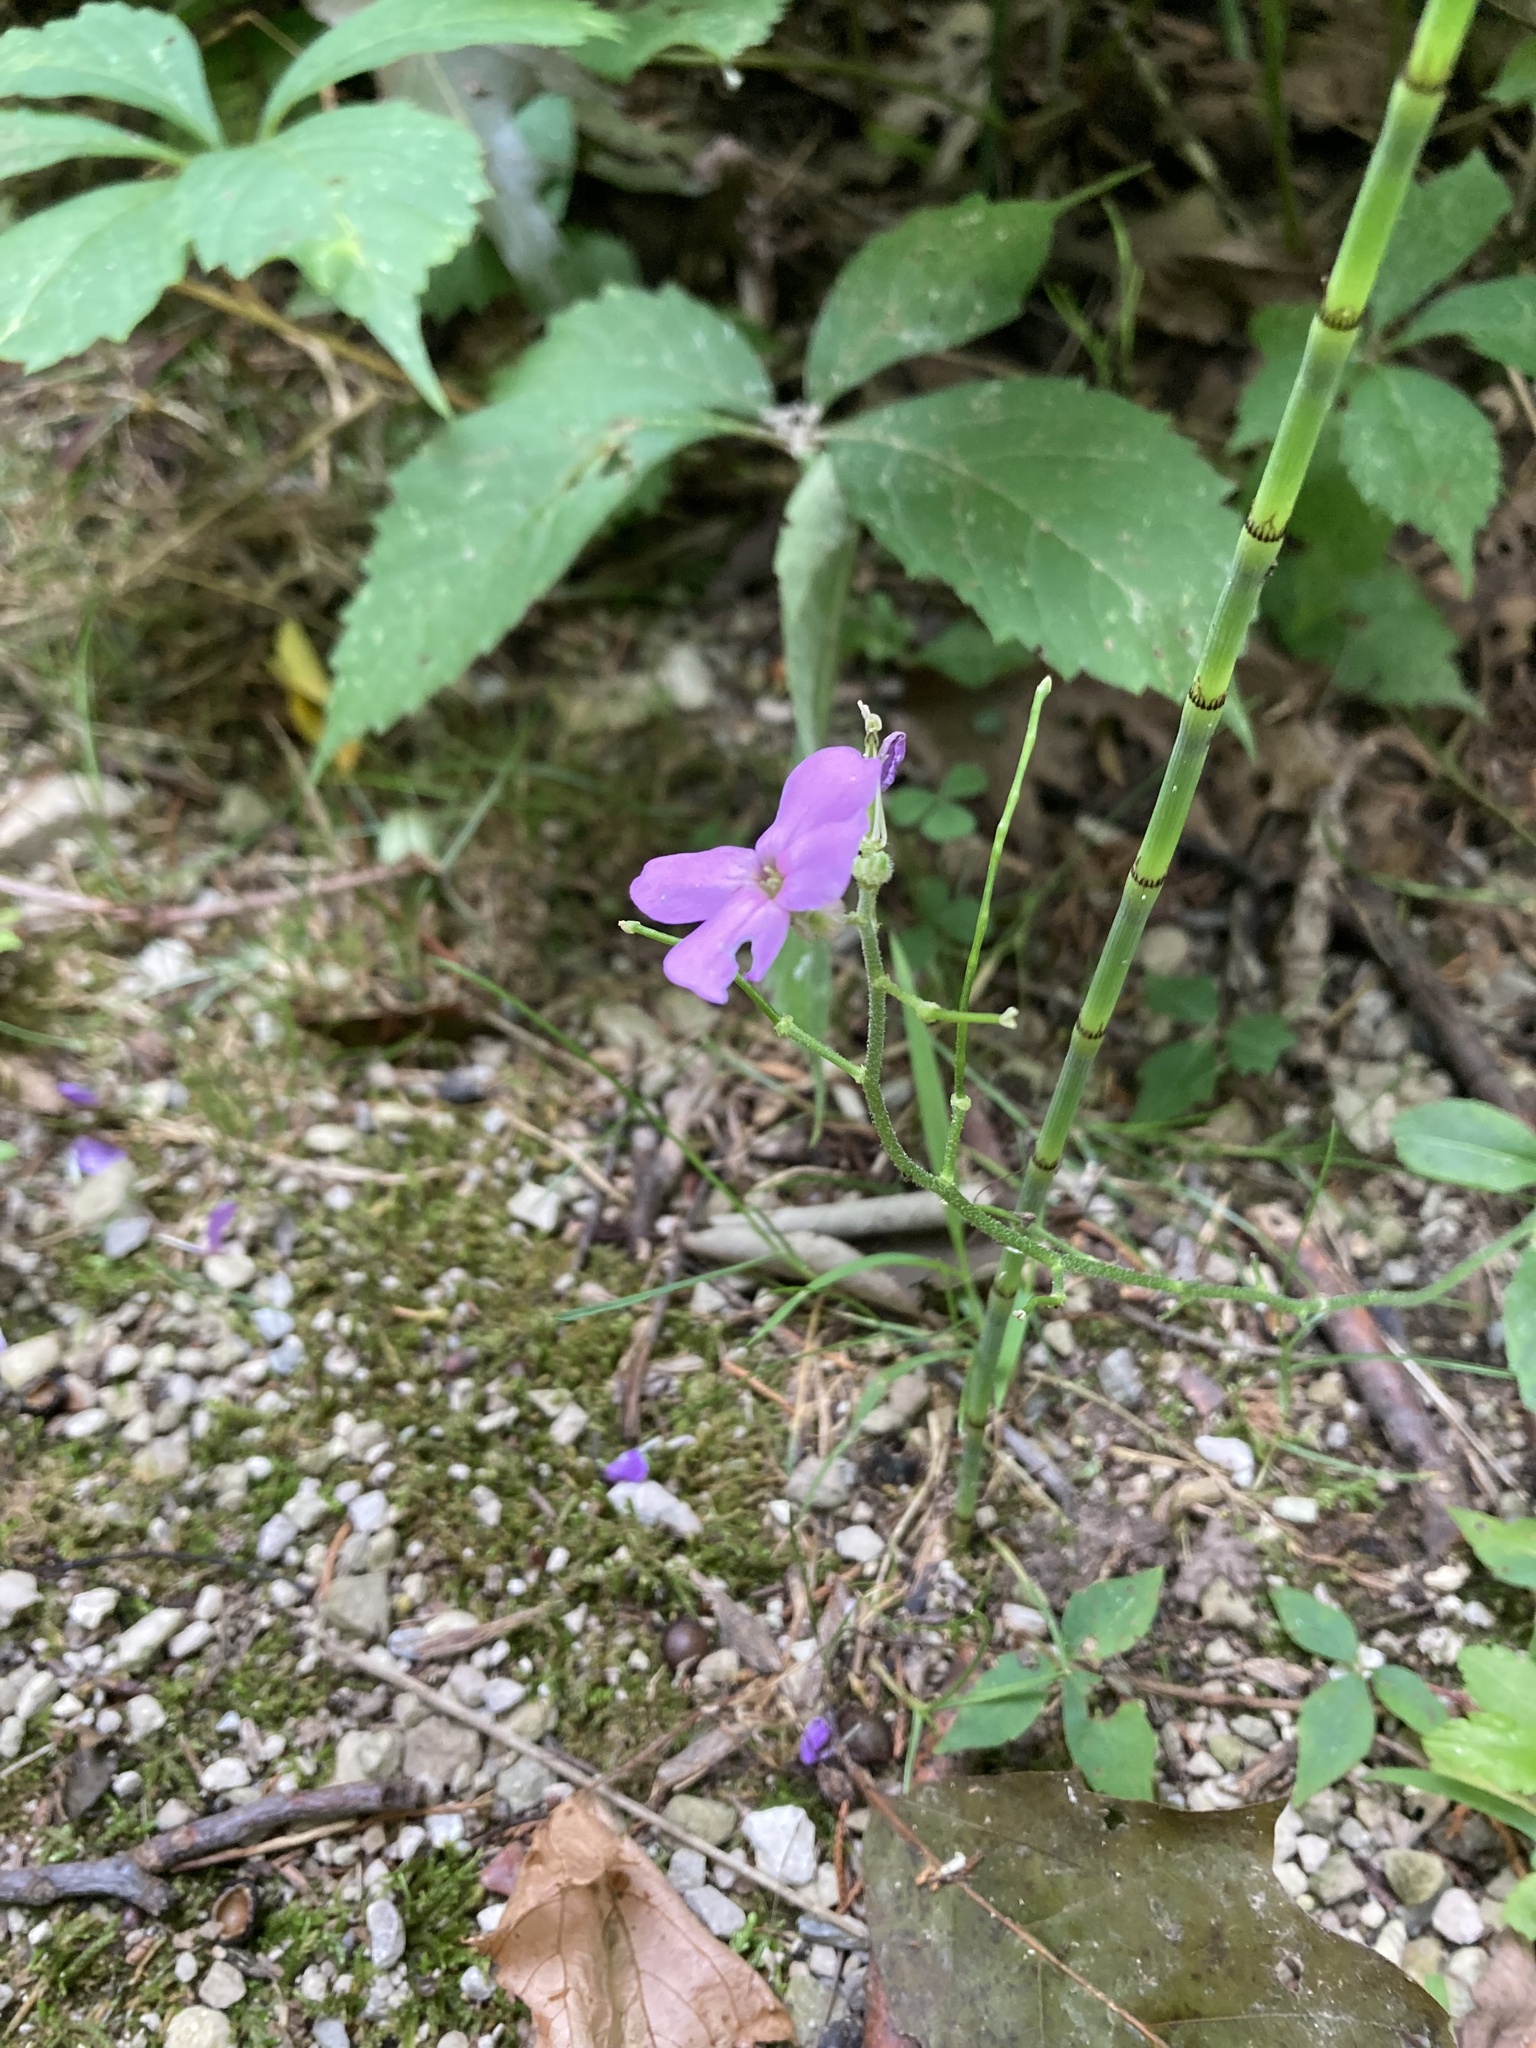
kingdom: Plantae
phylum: Tracheophyta
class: Magnoliopsida
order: Brassicales
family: Brassicaceae
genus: Hesperis
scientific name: Hesperis matronalis
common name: Dame's-violet
